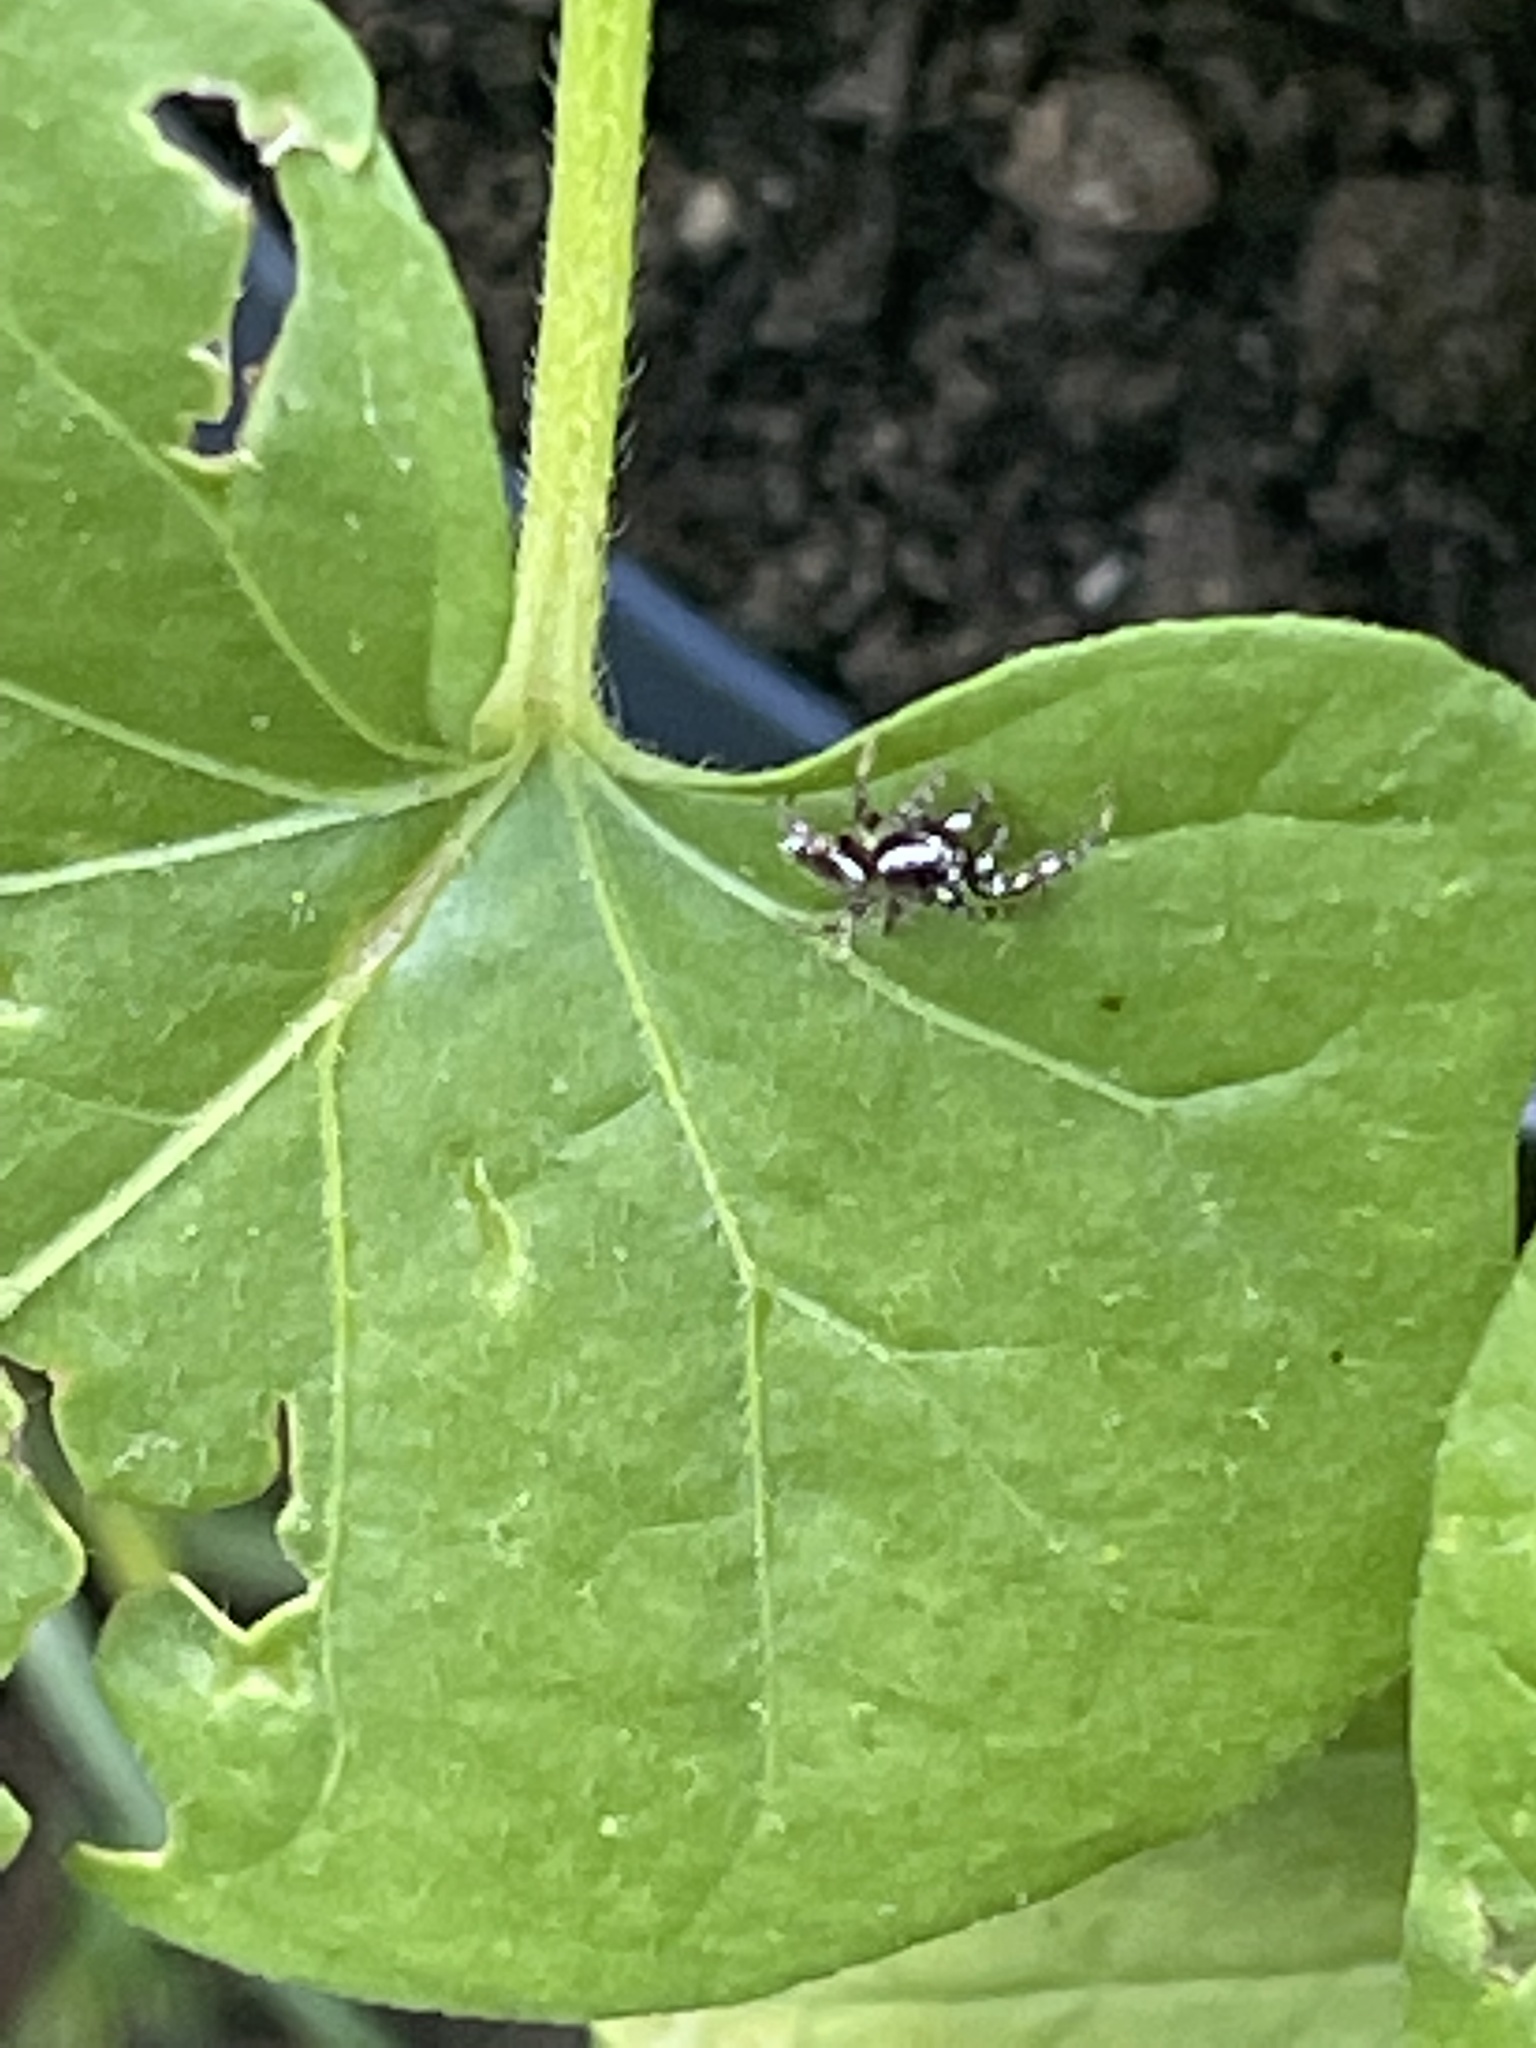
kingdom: Animalia
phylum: Arthropoda
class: Arachnida
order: Araneae
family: Salticidae
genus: Pelegrina
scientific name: Pelegrina proterva
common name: Common white-cheeked jumping spider
